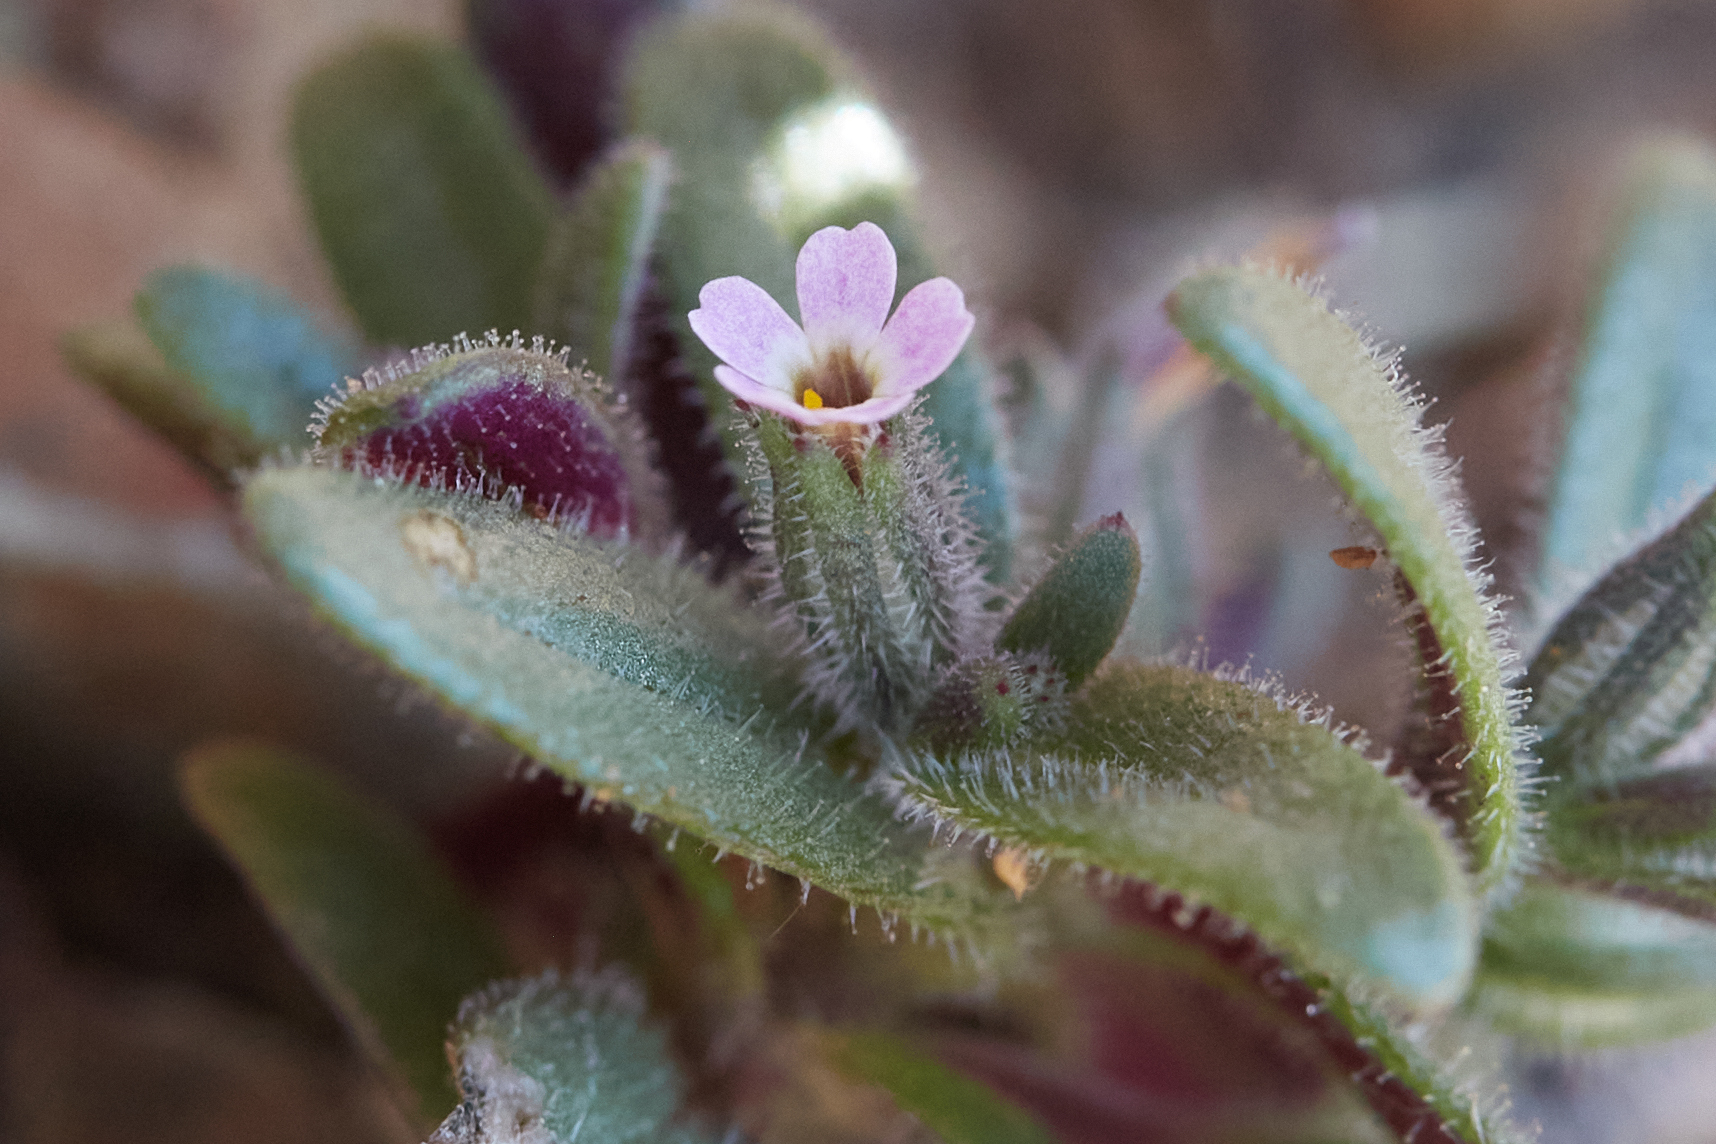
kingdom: Plantae
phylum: Tracheophyta
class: Magnoliopsida
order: Ericales
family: Polemoniaceae
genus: Phlox
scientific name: Phlox gracilis
